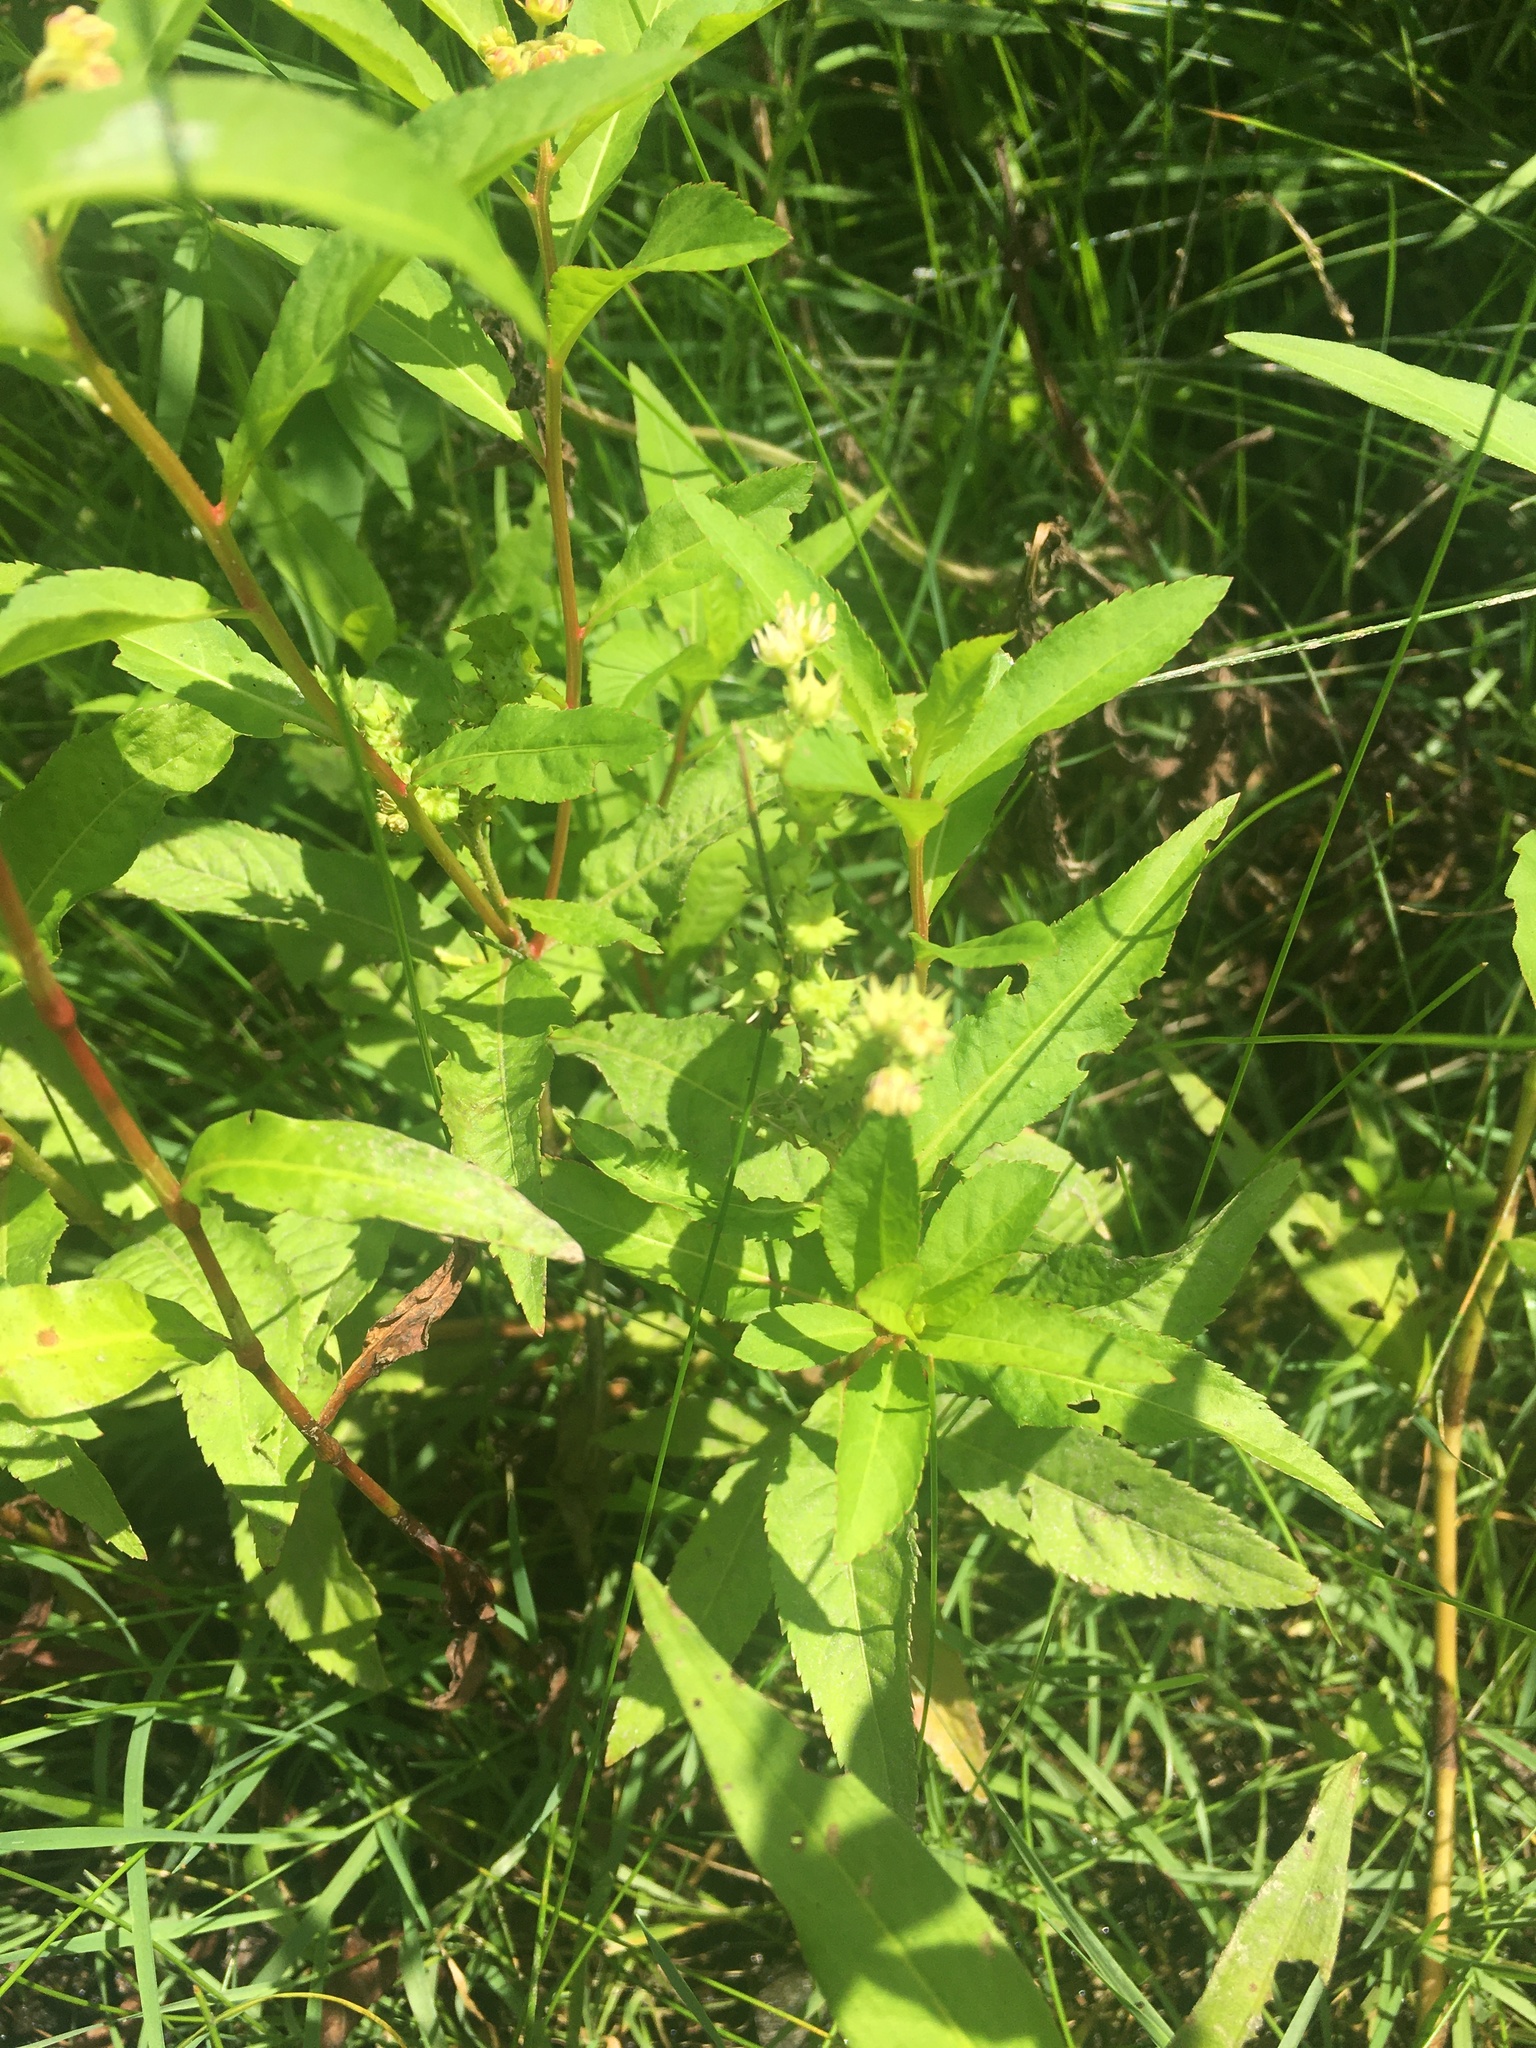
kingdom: Plantae
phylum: Tracheophyta
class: Magnoliopsida
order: Saxifragales
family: Penthoraceae
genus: Penthorum
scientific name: Penthorum sedoides
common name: Ditch stonecrop
